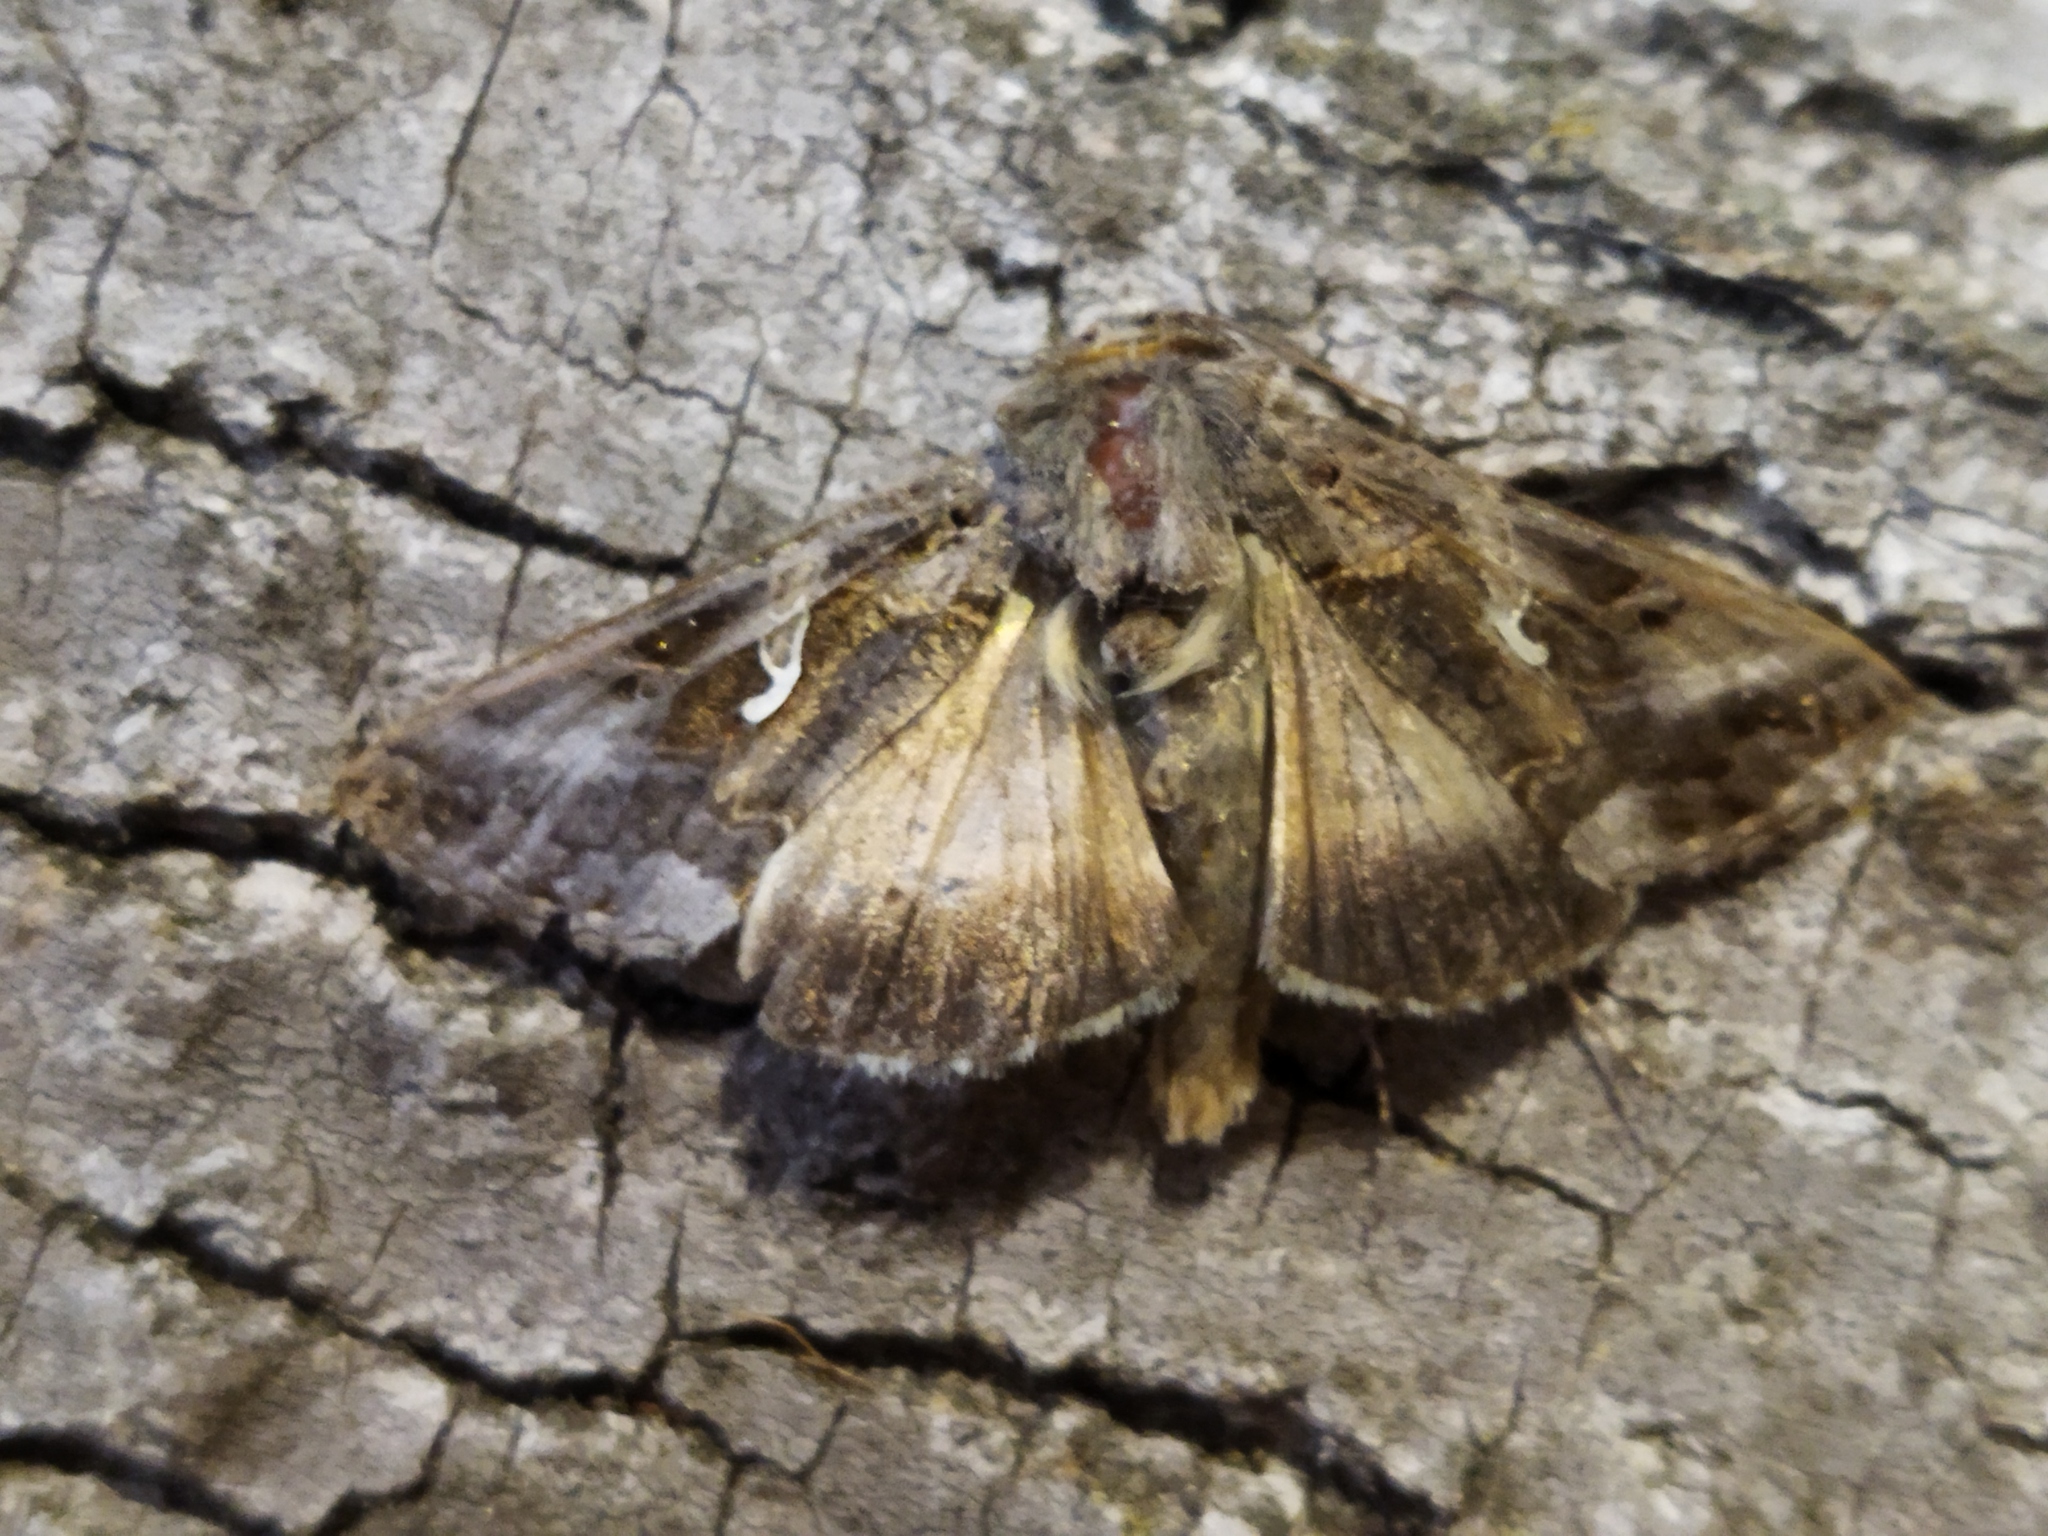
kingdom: Animalia
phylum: Arthropoda
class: Insecta
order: Lepidoptera
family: Noctuidae
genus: Autographa
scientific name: Autographa gamma
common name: Silver y
